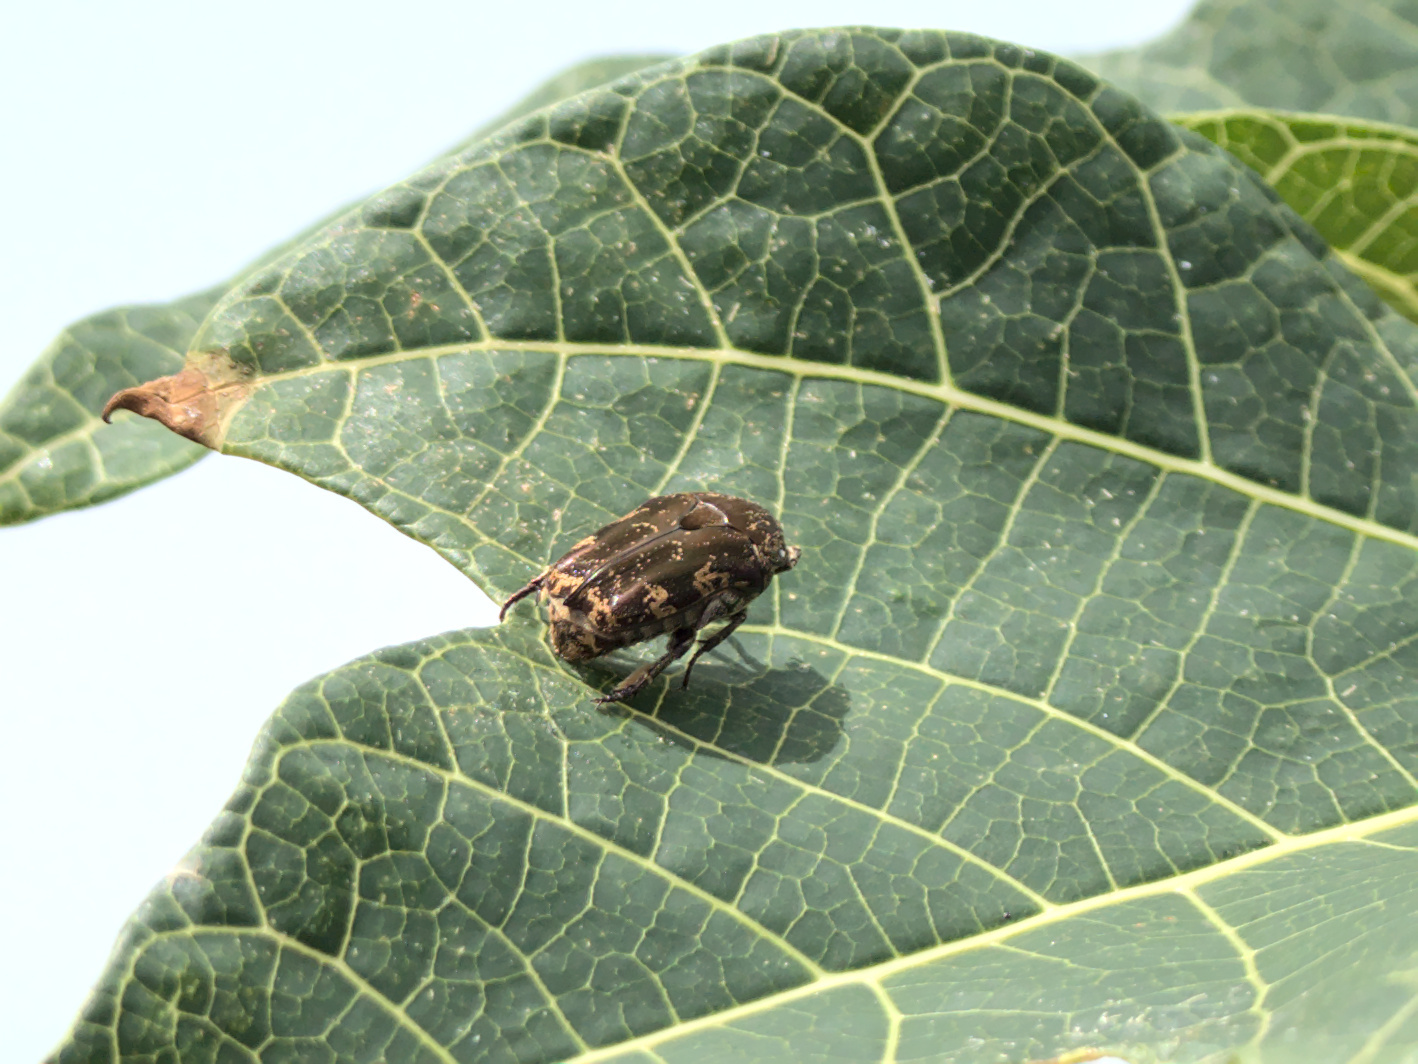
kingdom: Animalia
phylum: Arthropoda
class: Insecta
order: Coleoptera
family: Scarabaeidae
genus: Protaetia
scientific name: Protaetia fusca
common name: Mango flower beetle
